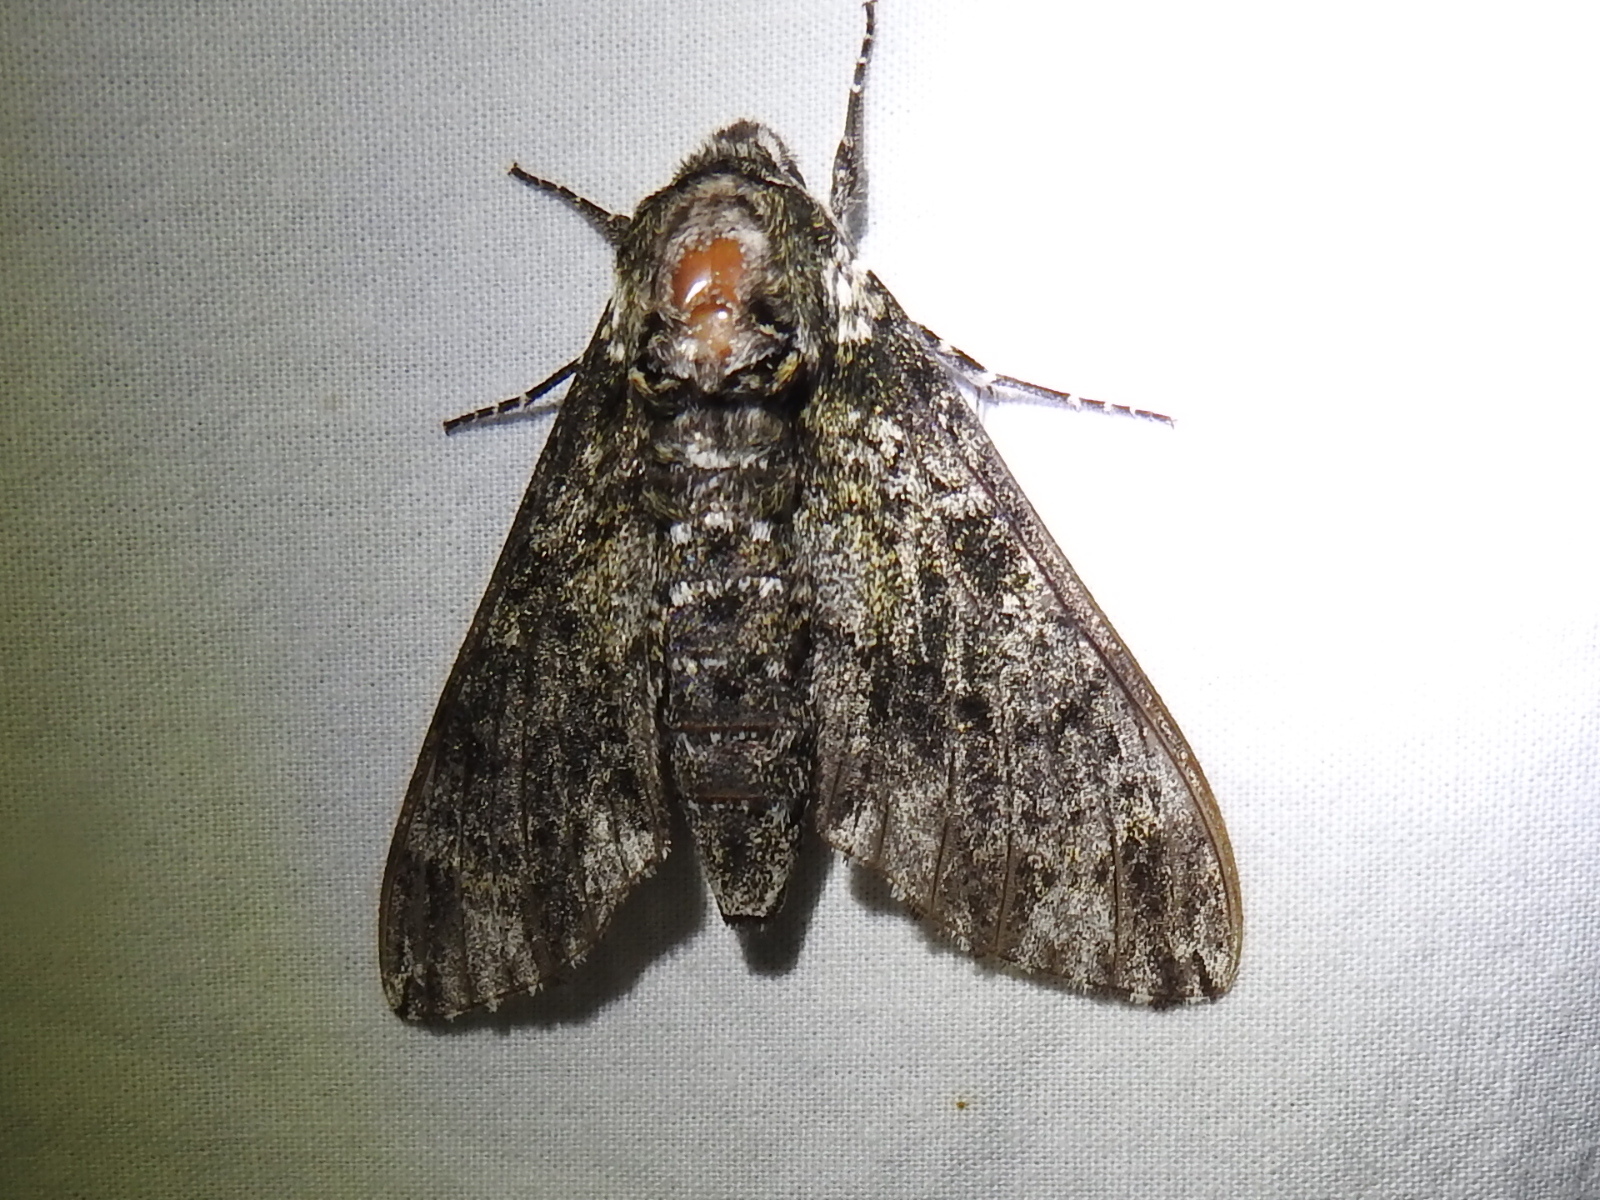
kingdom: Animalia
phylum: Arthropoda
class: Insecta
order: Lepidoptera
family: Sphingidae
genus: Dolba
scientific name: Dolba hyloeus
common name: Pawpaw sphinx
